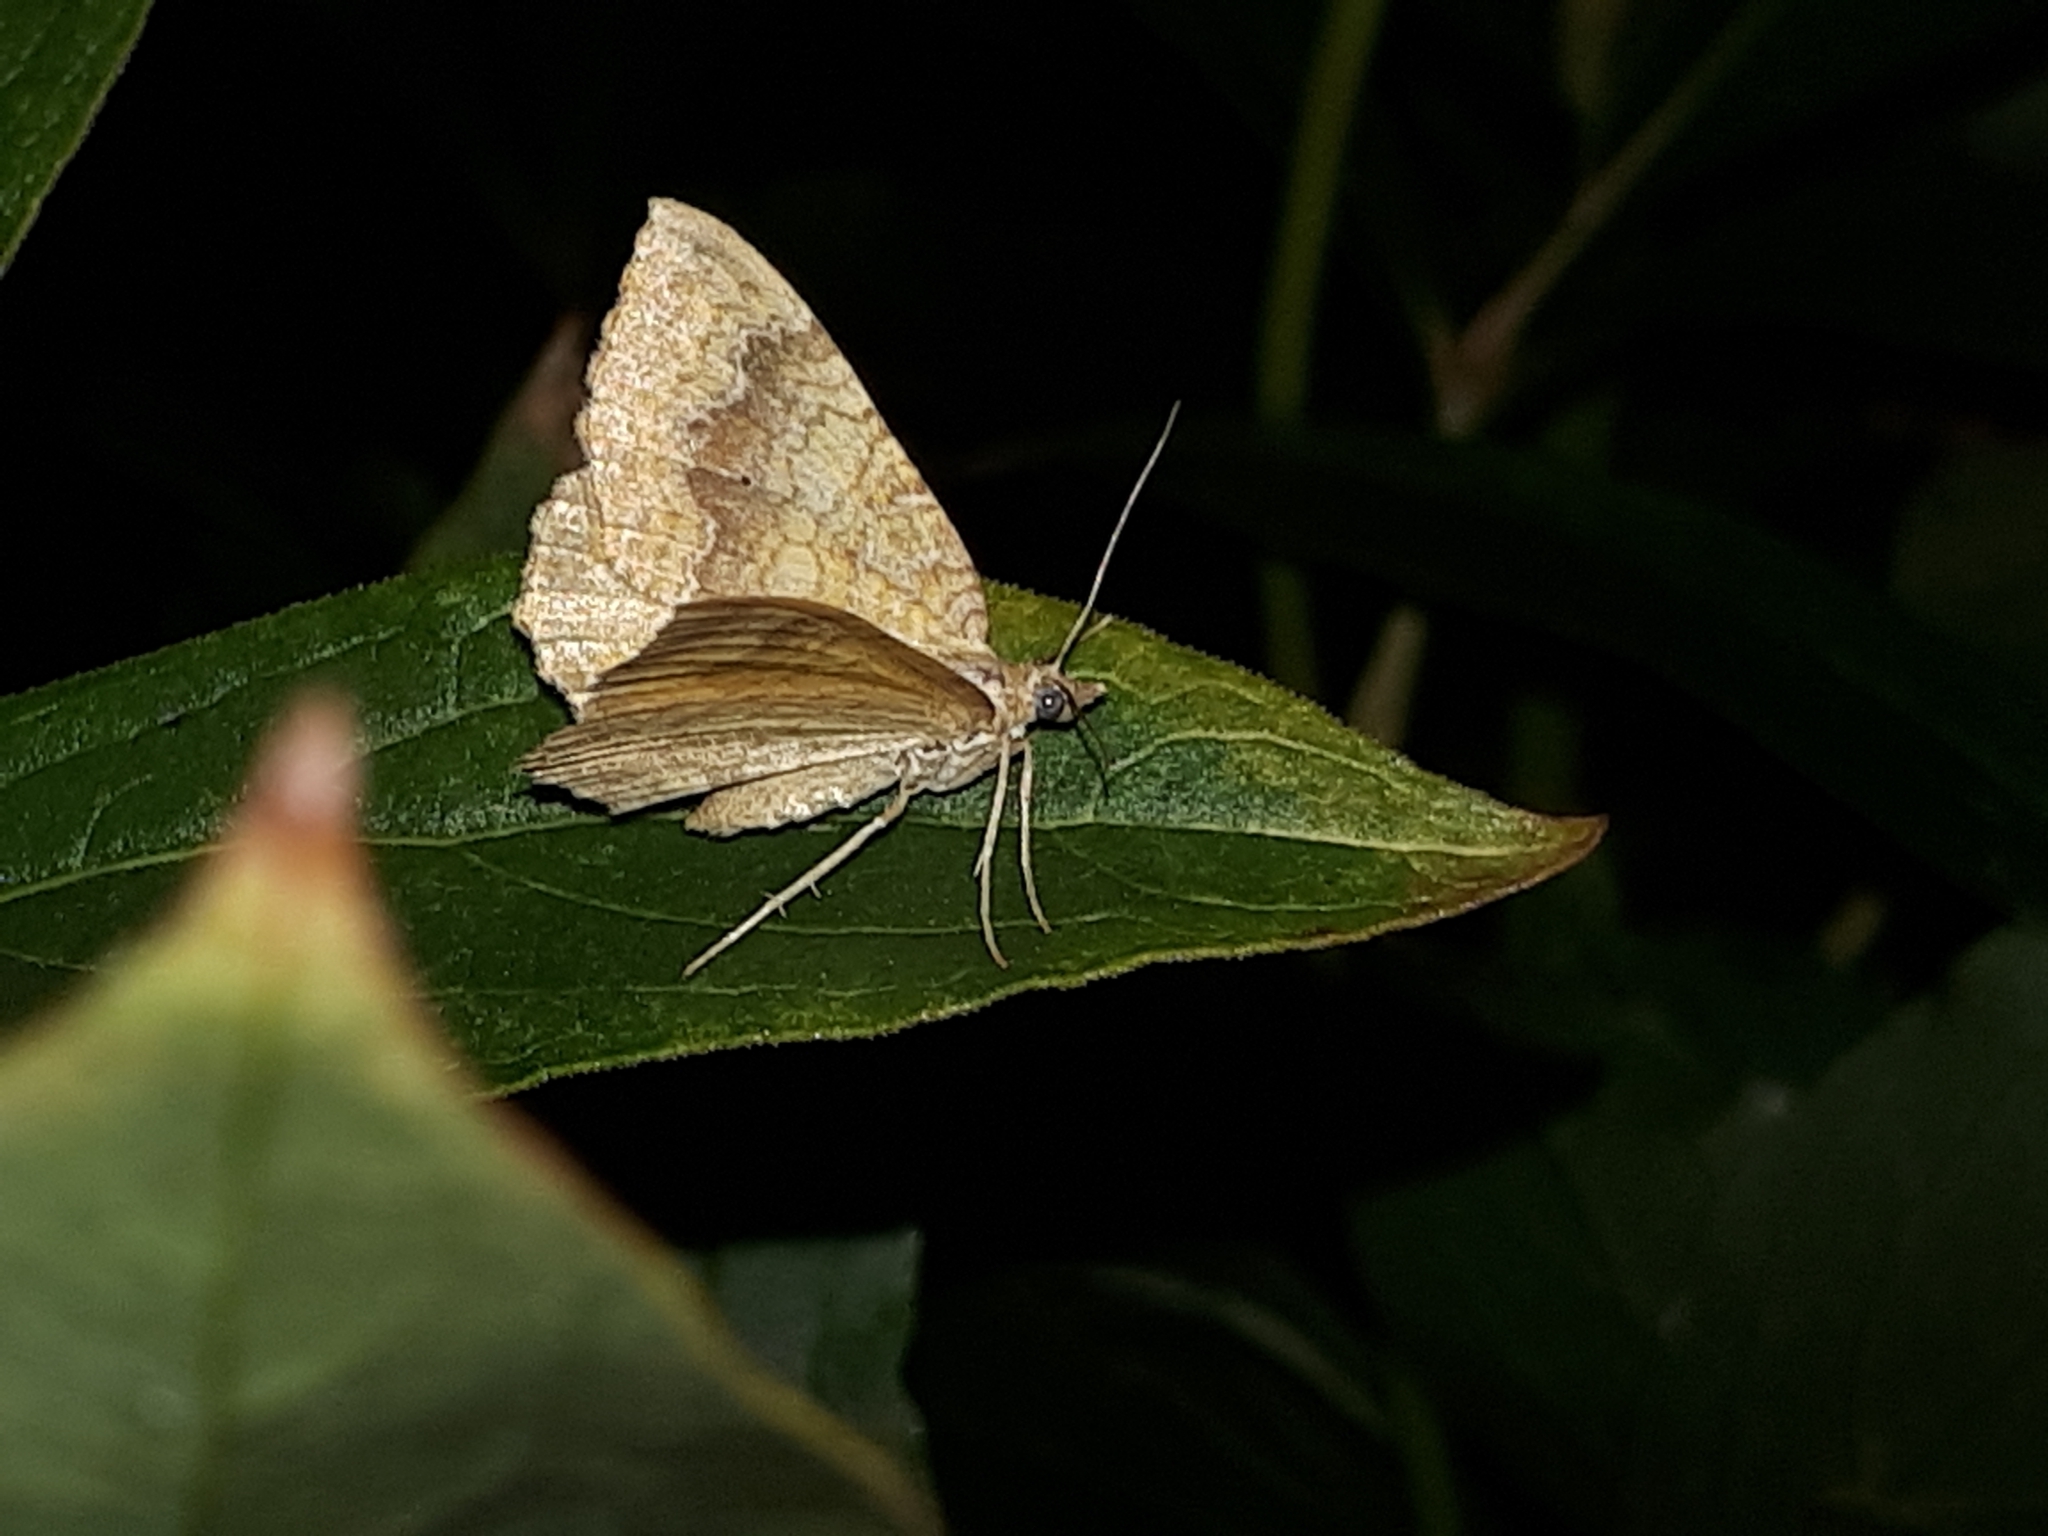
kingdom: Animalia
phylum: Arthropoda
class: Insecta
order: Lepidoptera
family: Geometridae
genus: Camptogramma
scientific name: Camptogramma bilineata
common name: Yellow shell
